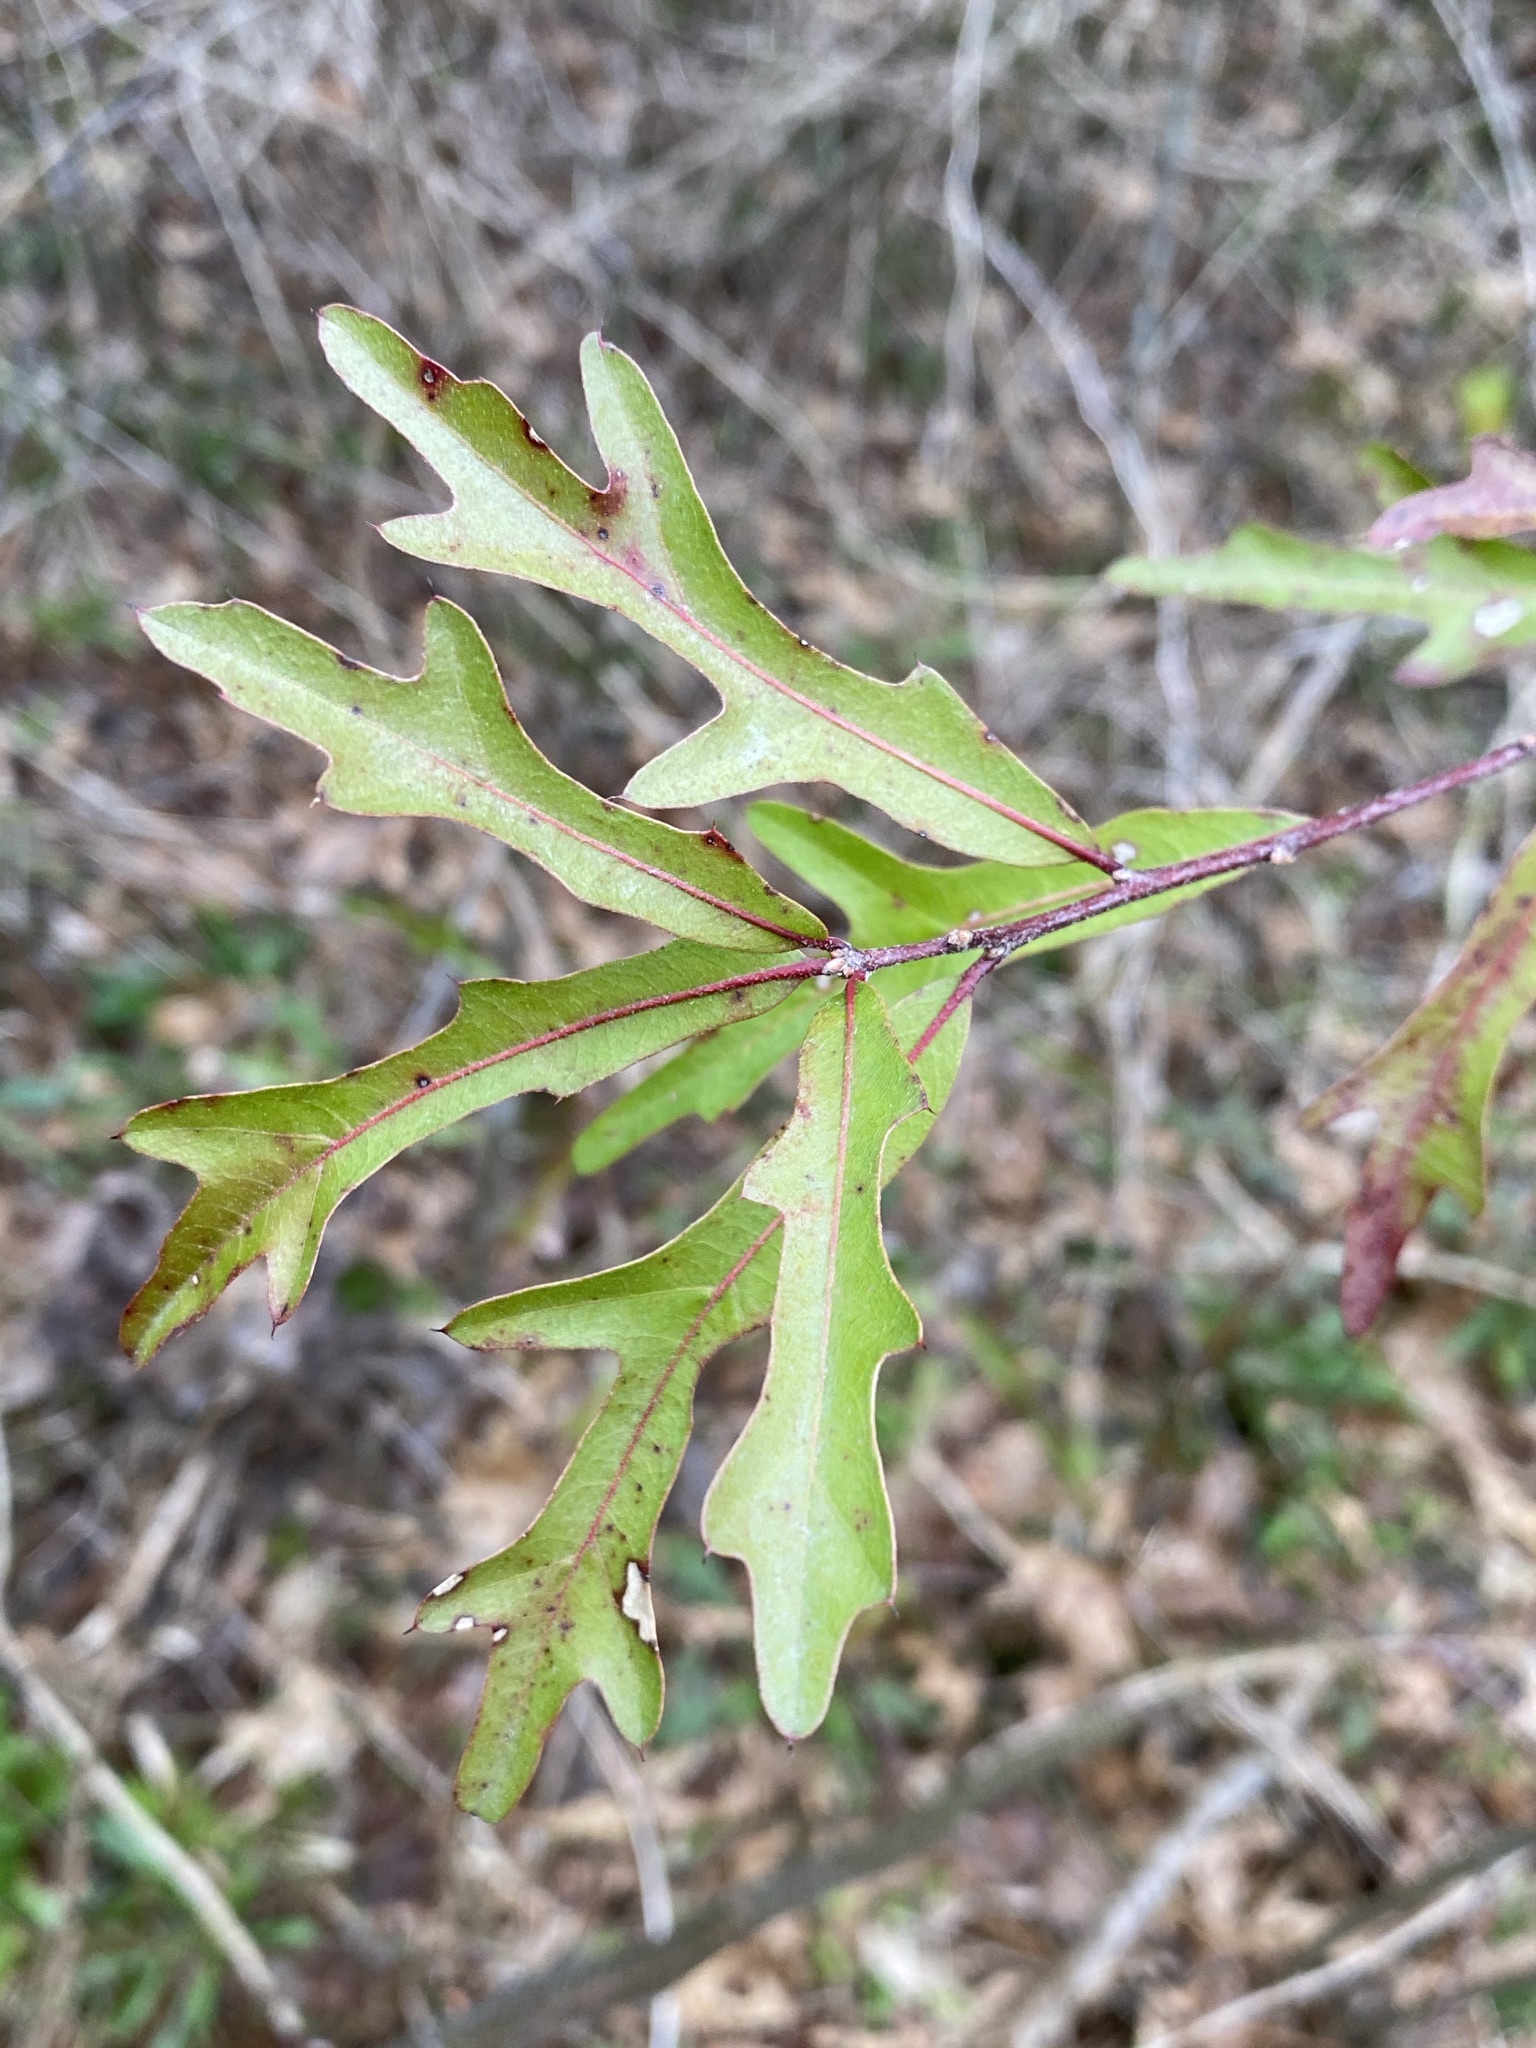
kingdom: Plantae
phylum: Tracheophyta
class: Magnoliopsida
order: Fagales
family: Fagaceae
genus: Quercus
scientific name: Quercus nigra
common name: Water oak
